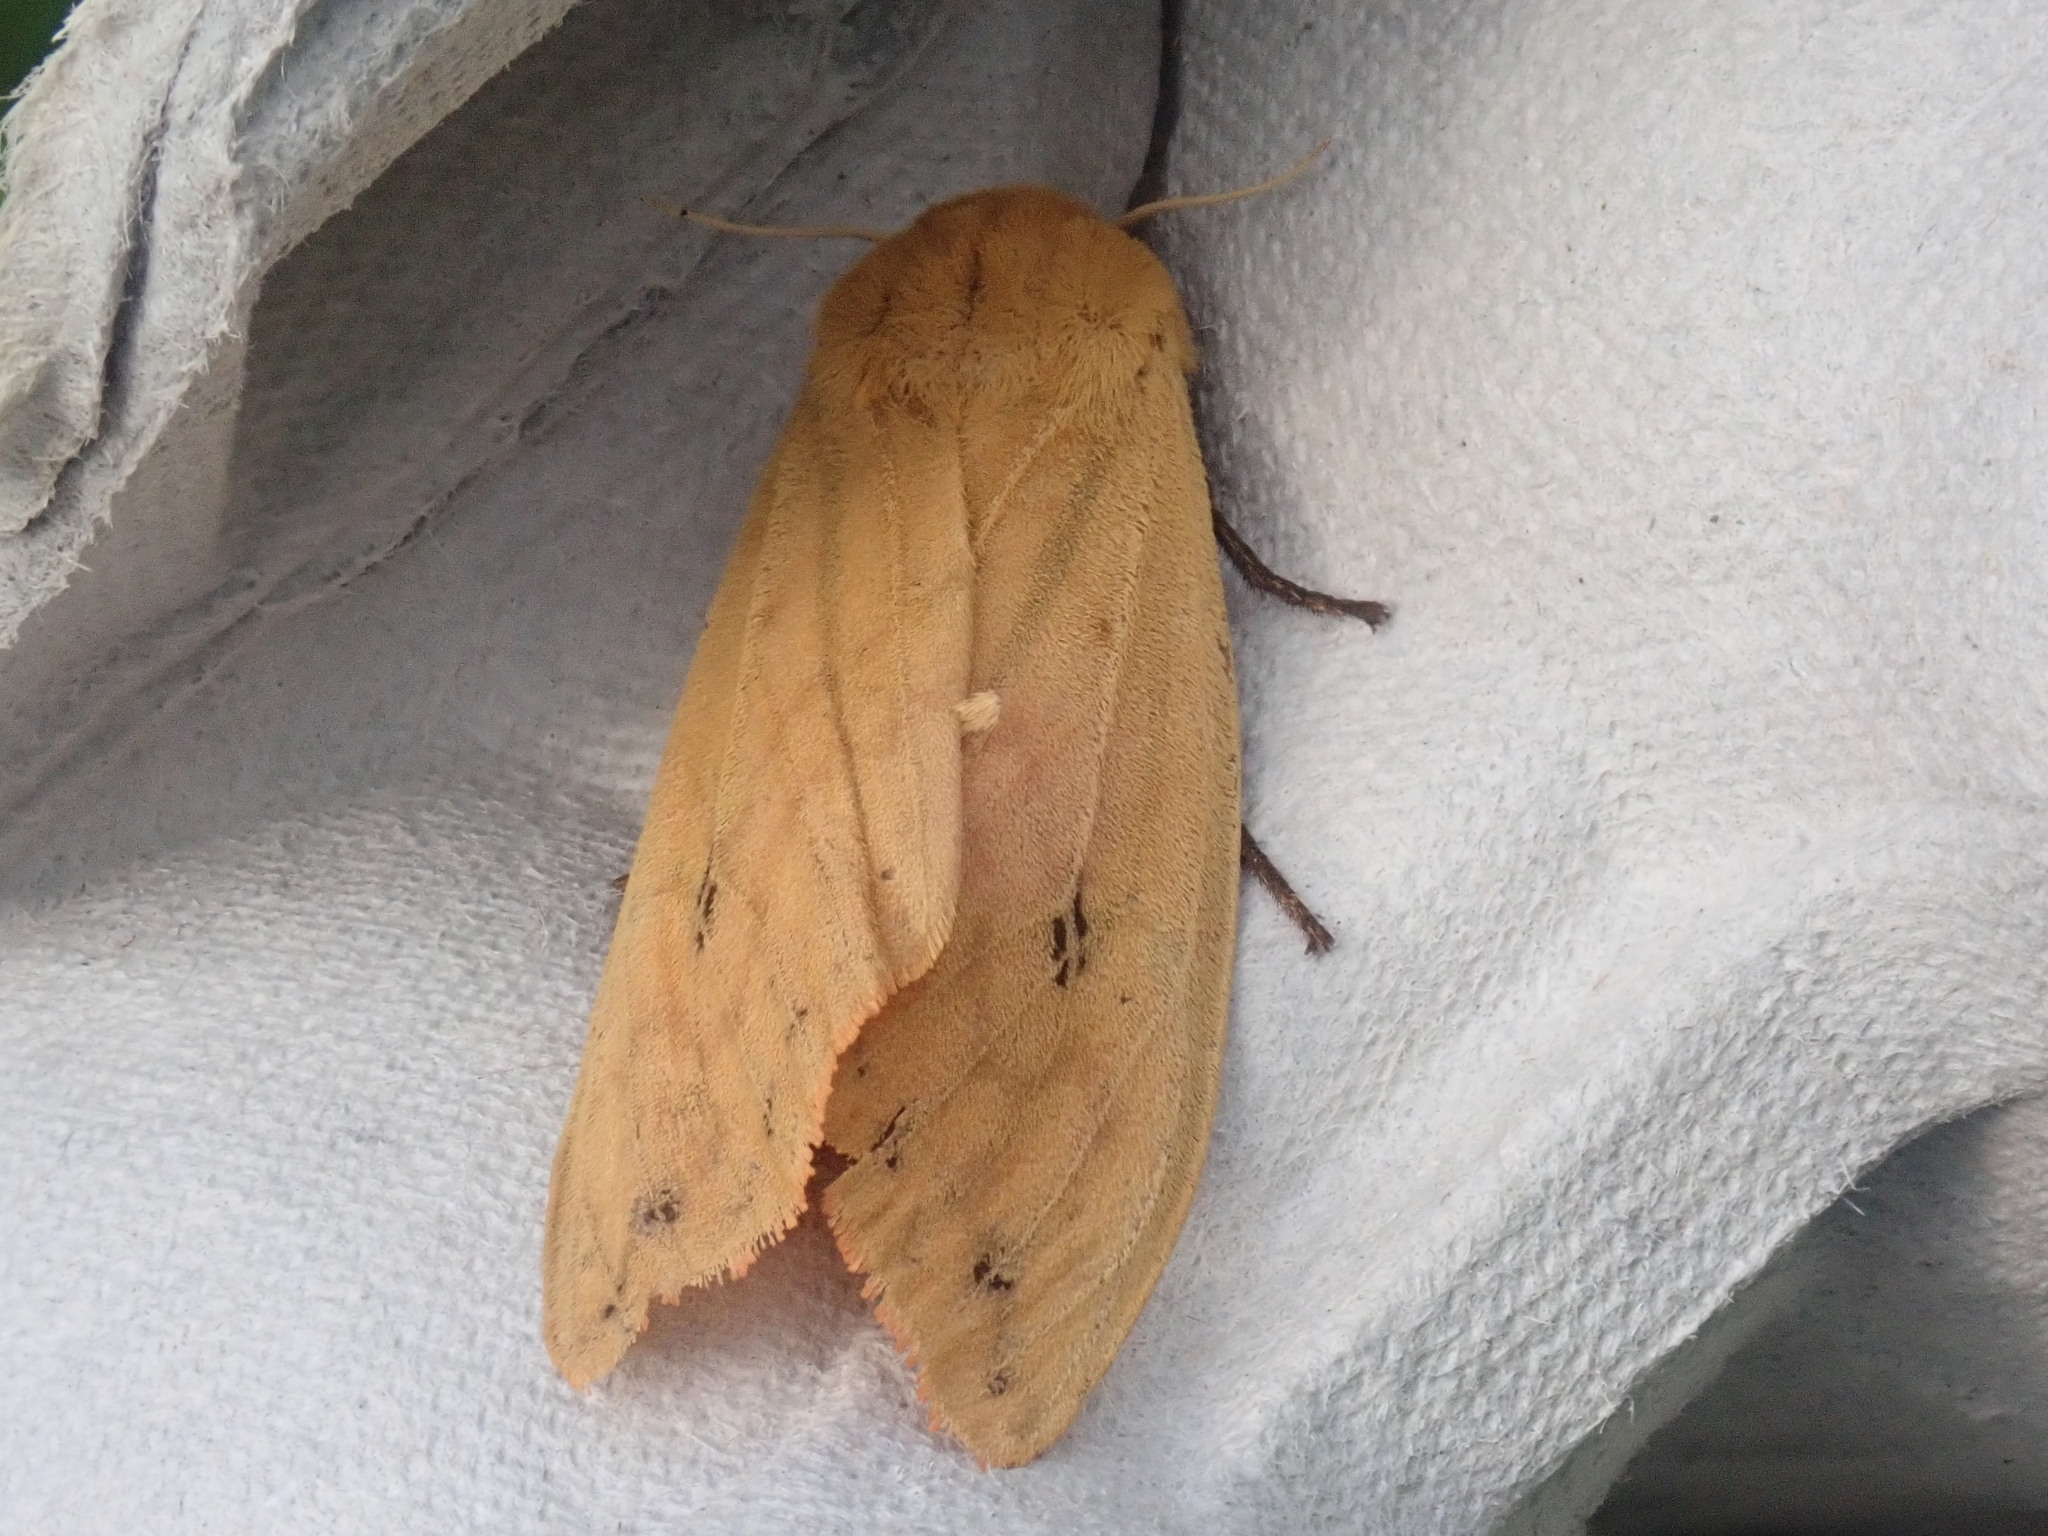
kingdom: Animalia
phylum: Arthropoda
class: Insecta
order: Lepidoptera
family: Erebidae
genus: Pyrrharctia
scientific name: Pyrrharctia isabella
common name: Isabella tiger moth
